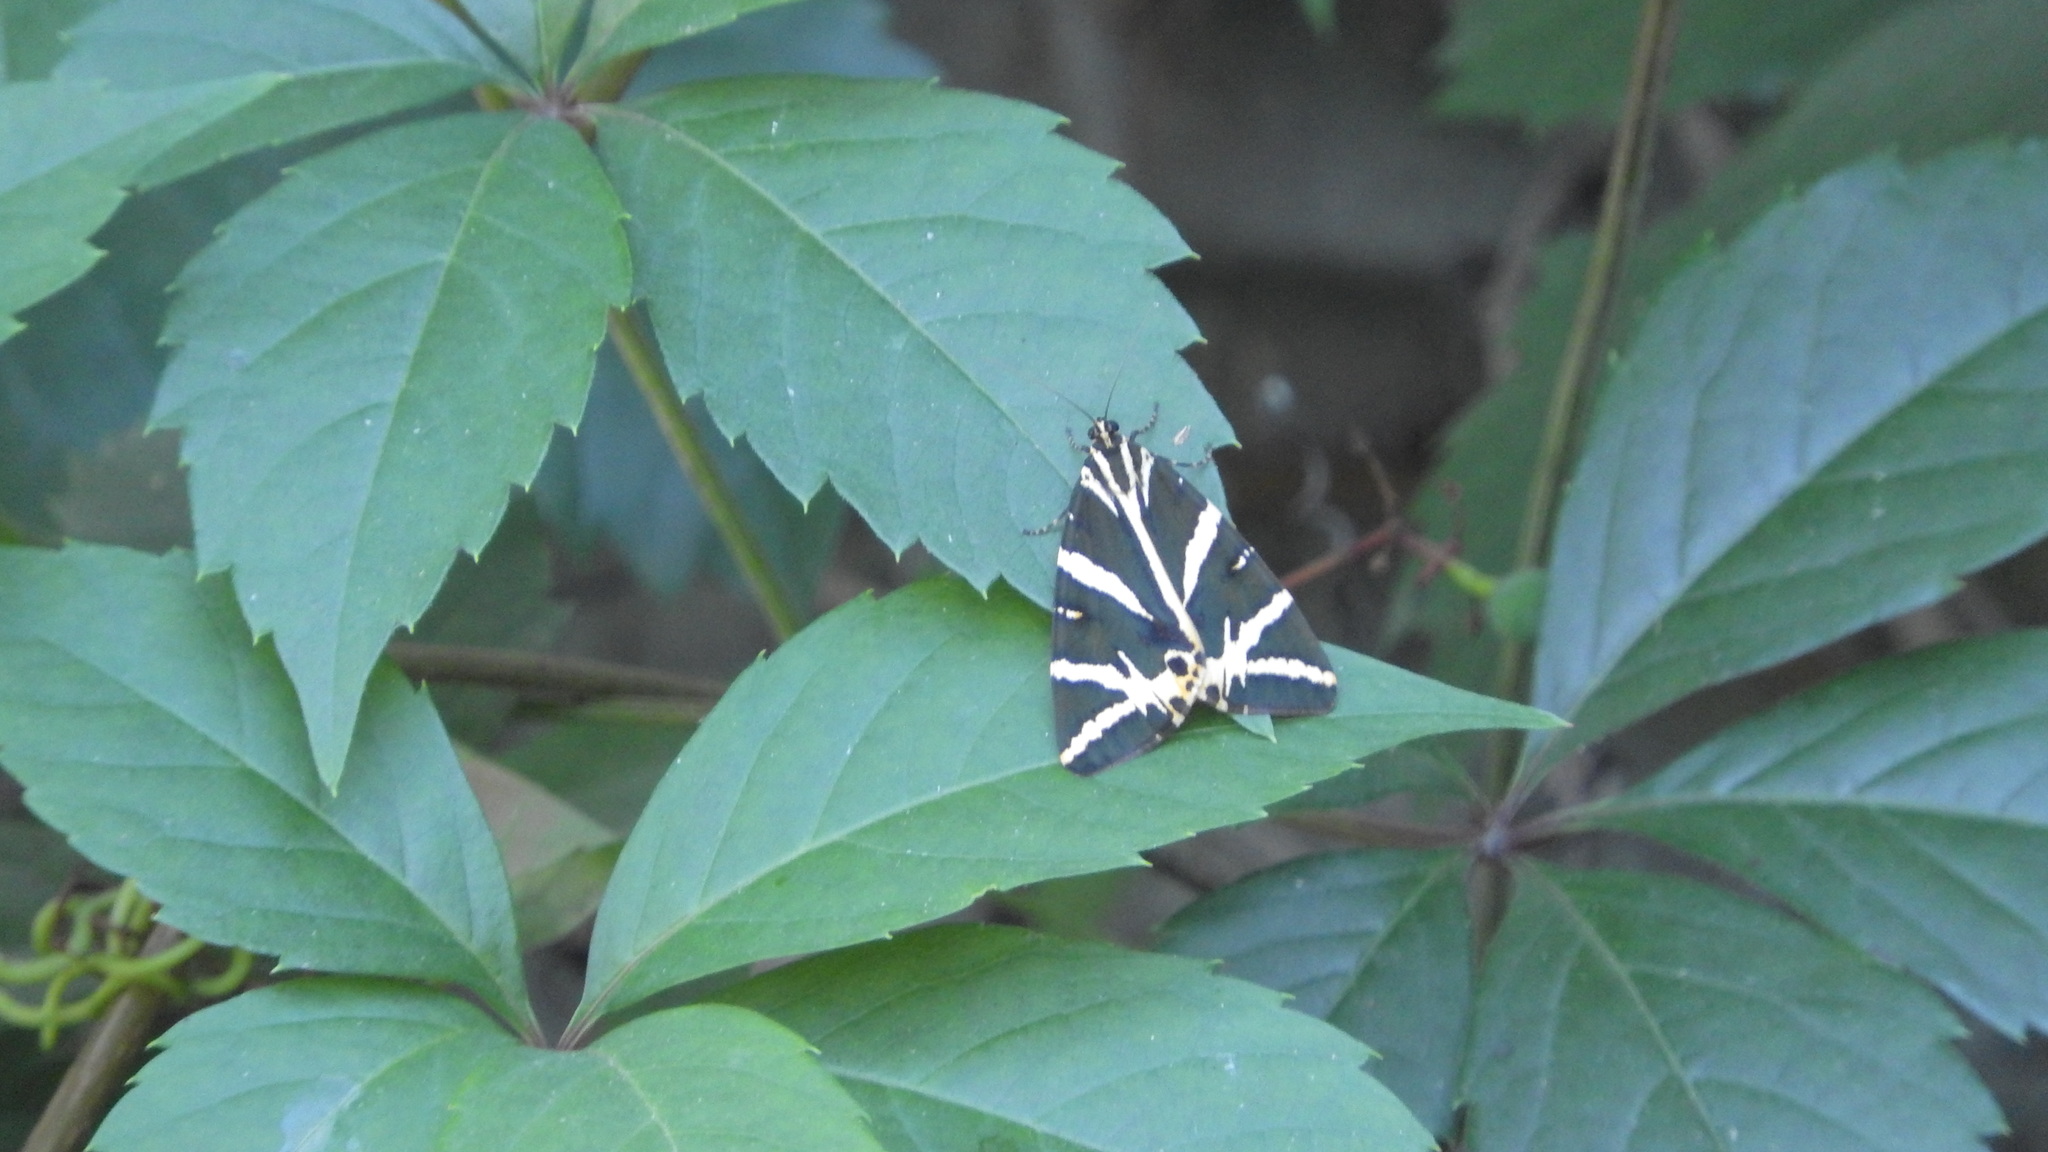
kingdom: Animalia
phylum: Arthropoda
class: Insecta
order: Lepidoptera
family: Erebidae
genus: Euplagia
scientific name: Euplagia quadripunctaria
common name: Jersey tiger
